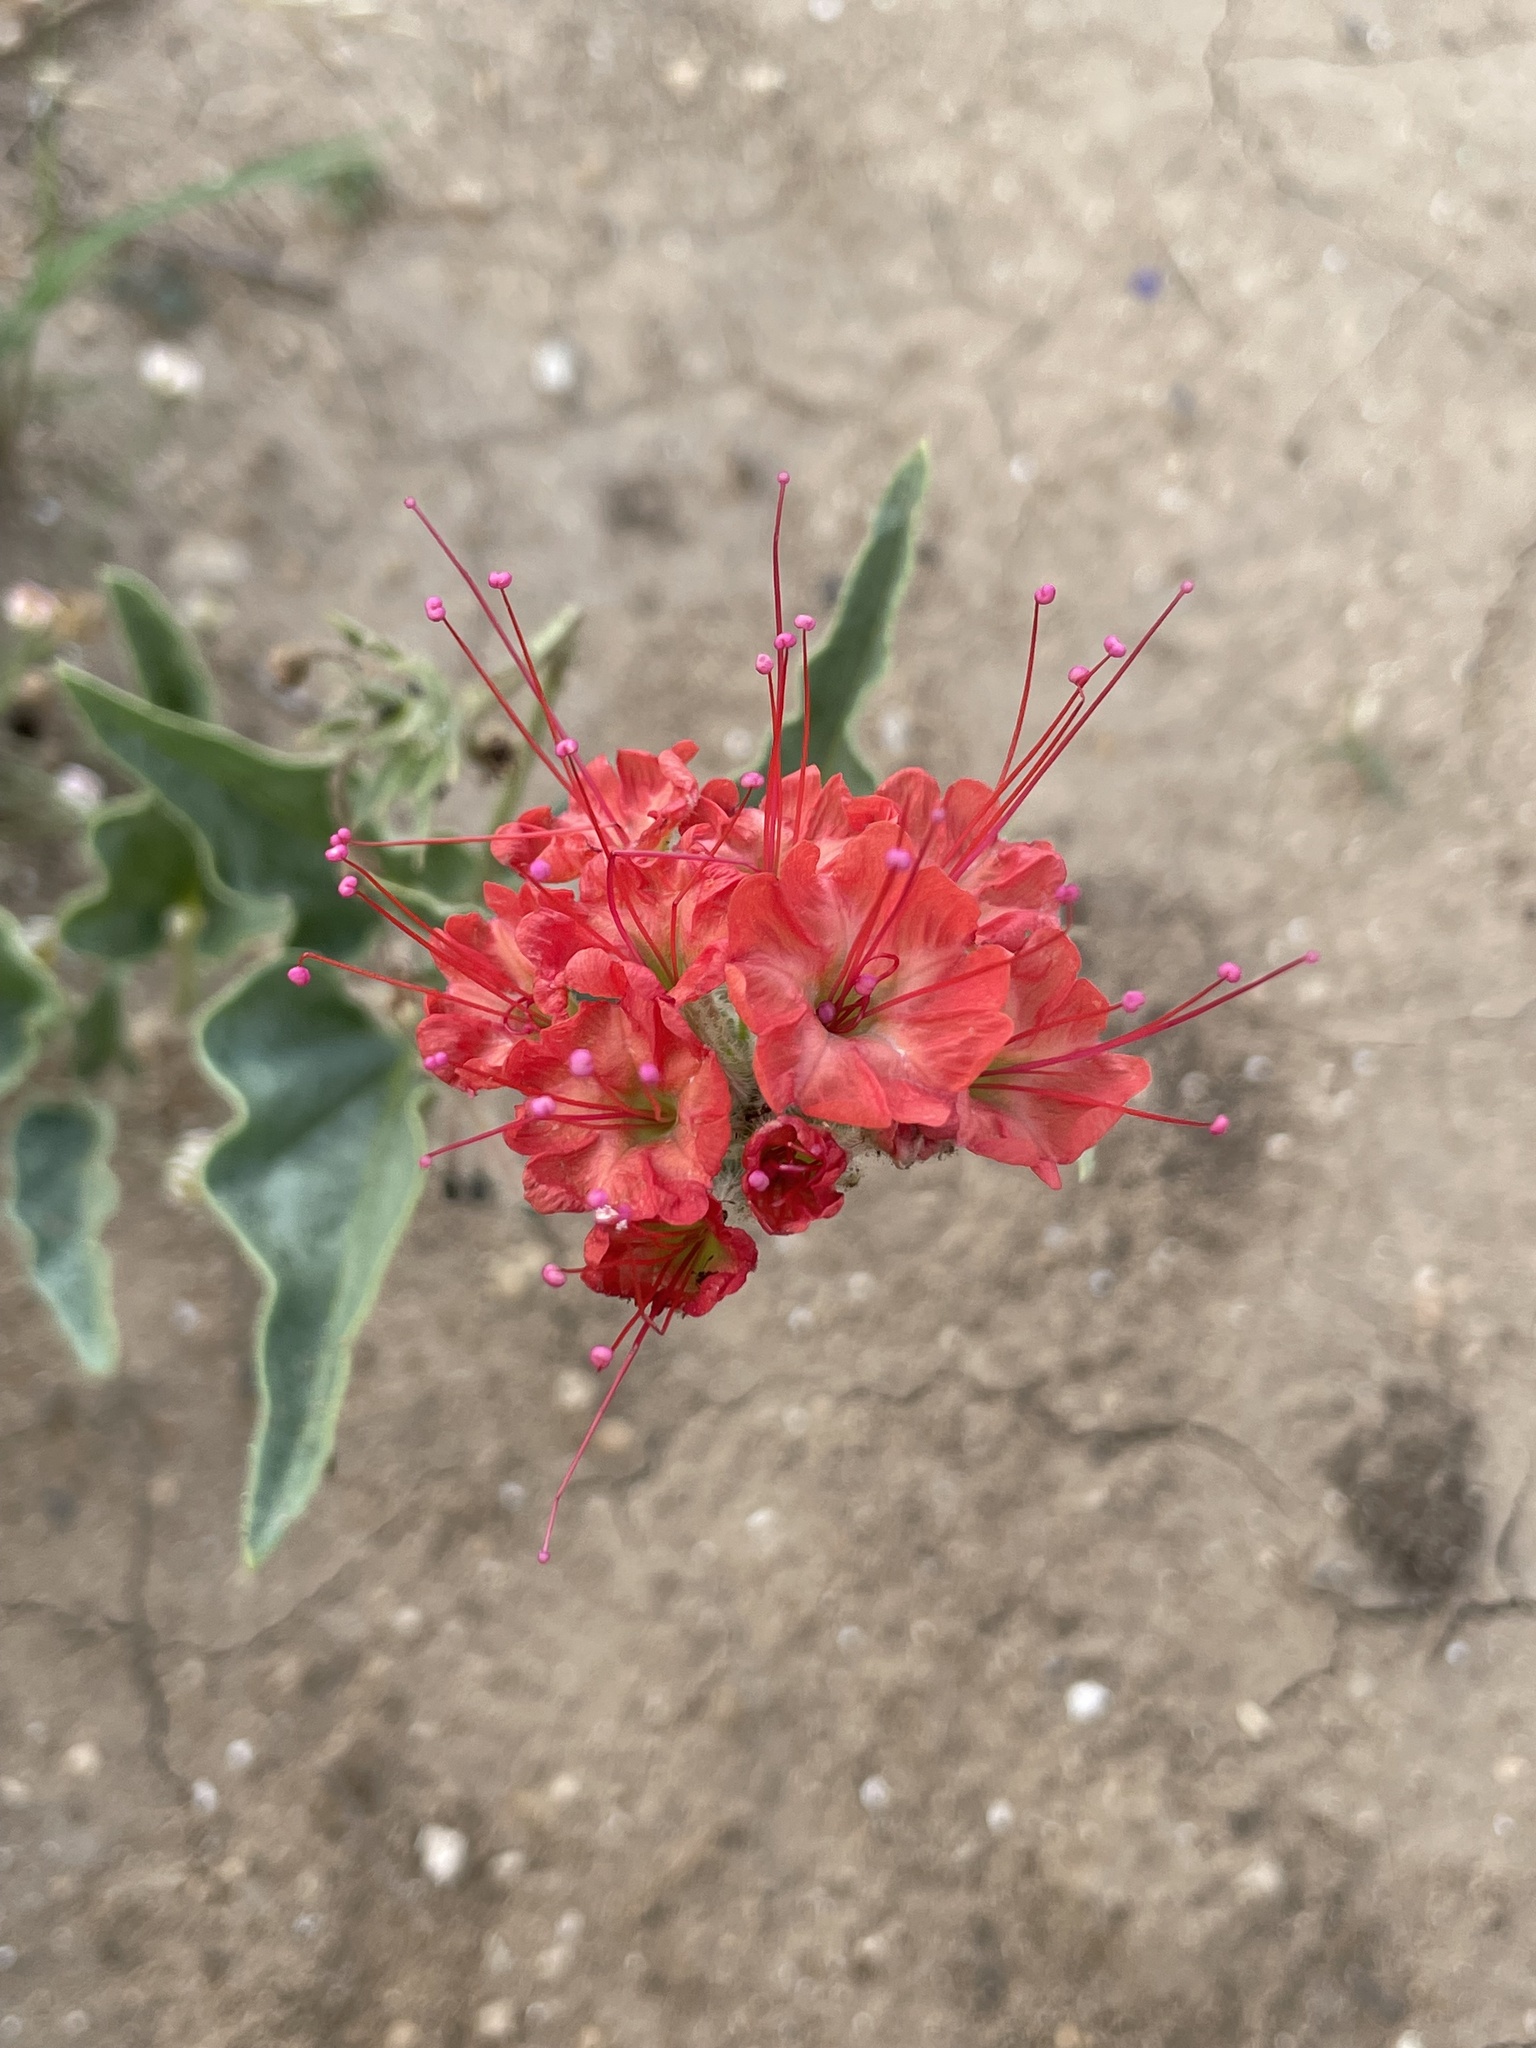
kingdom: Plantae
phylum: Tracheophyta
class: Magnoliopsida
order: Caryophyllales
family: Nyctaginaceae
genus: Nyctaginia
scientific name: Nyctaginia capitata
